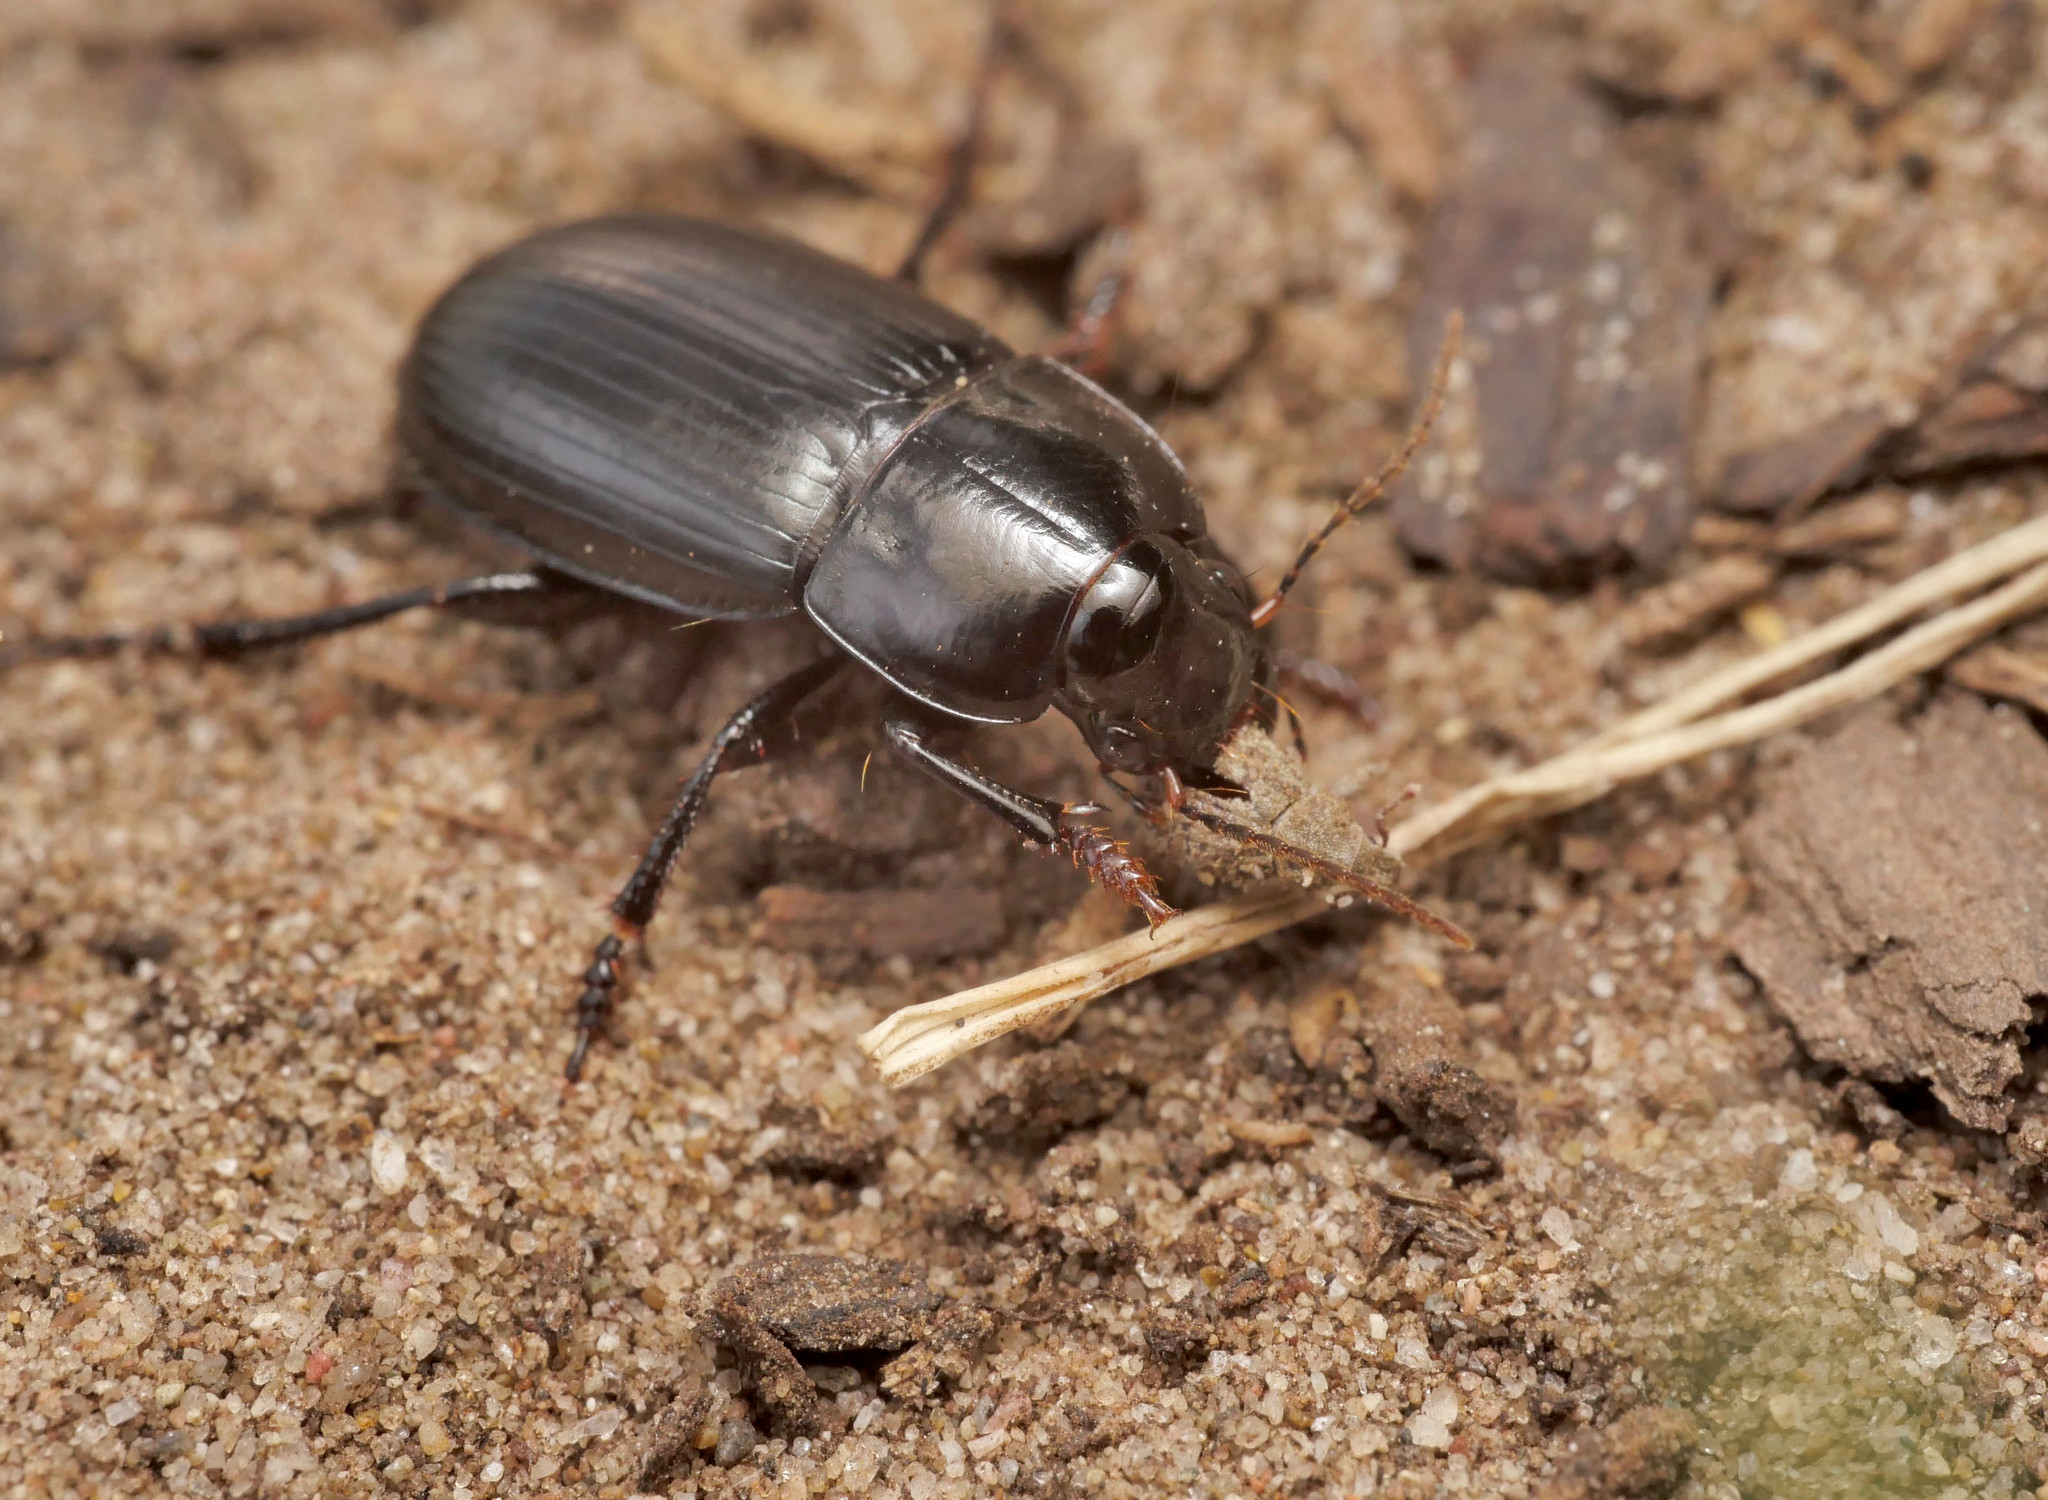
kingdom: Animalia
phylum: Arthropoda
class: Insecta
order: Coleoptera
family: Carabidae
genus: Harpalus
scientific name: Harpalus serripes
